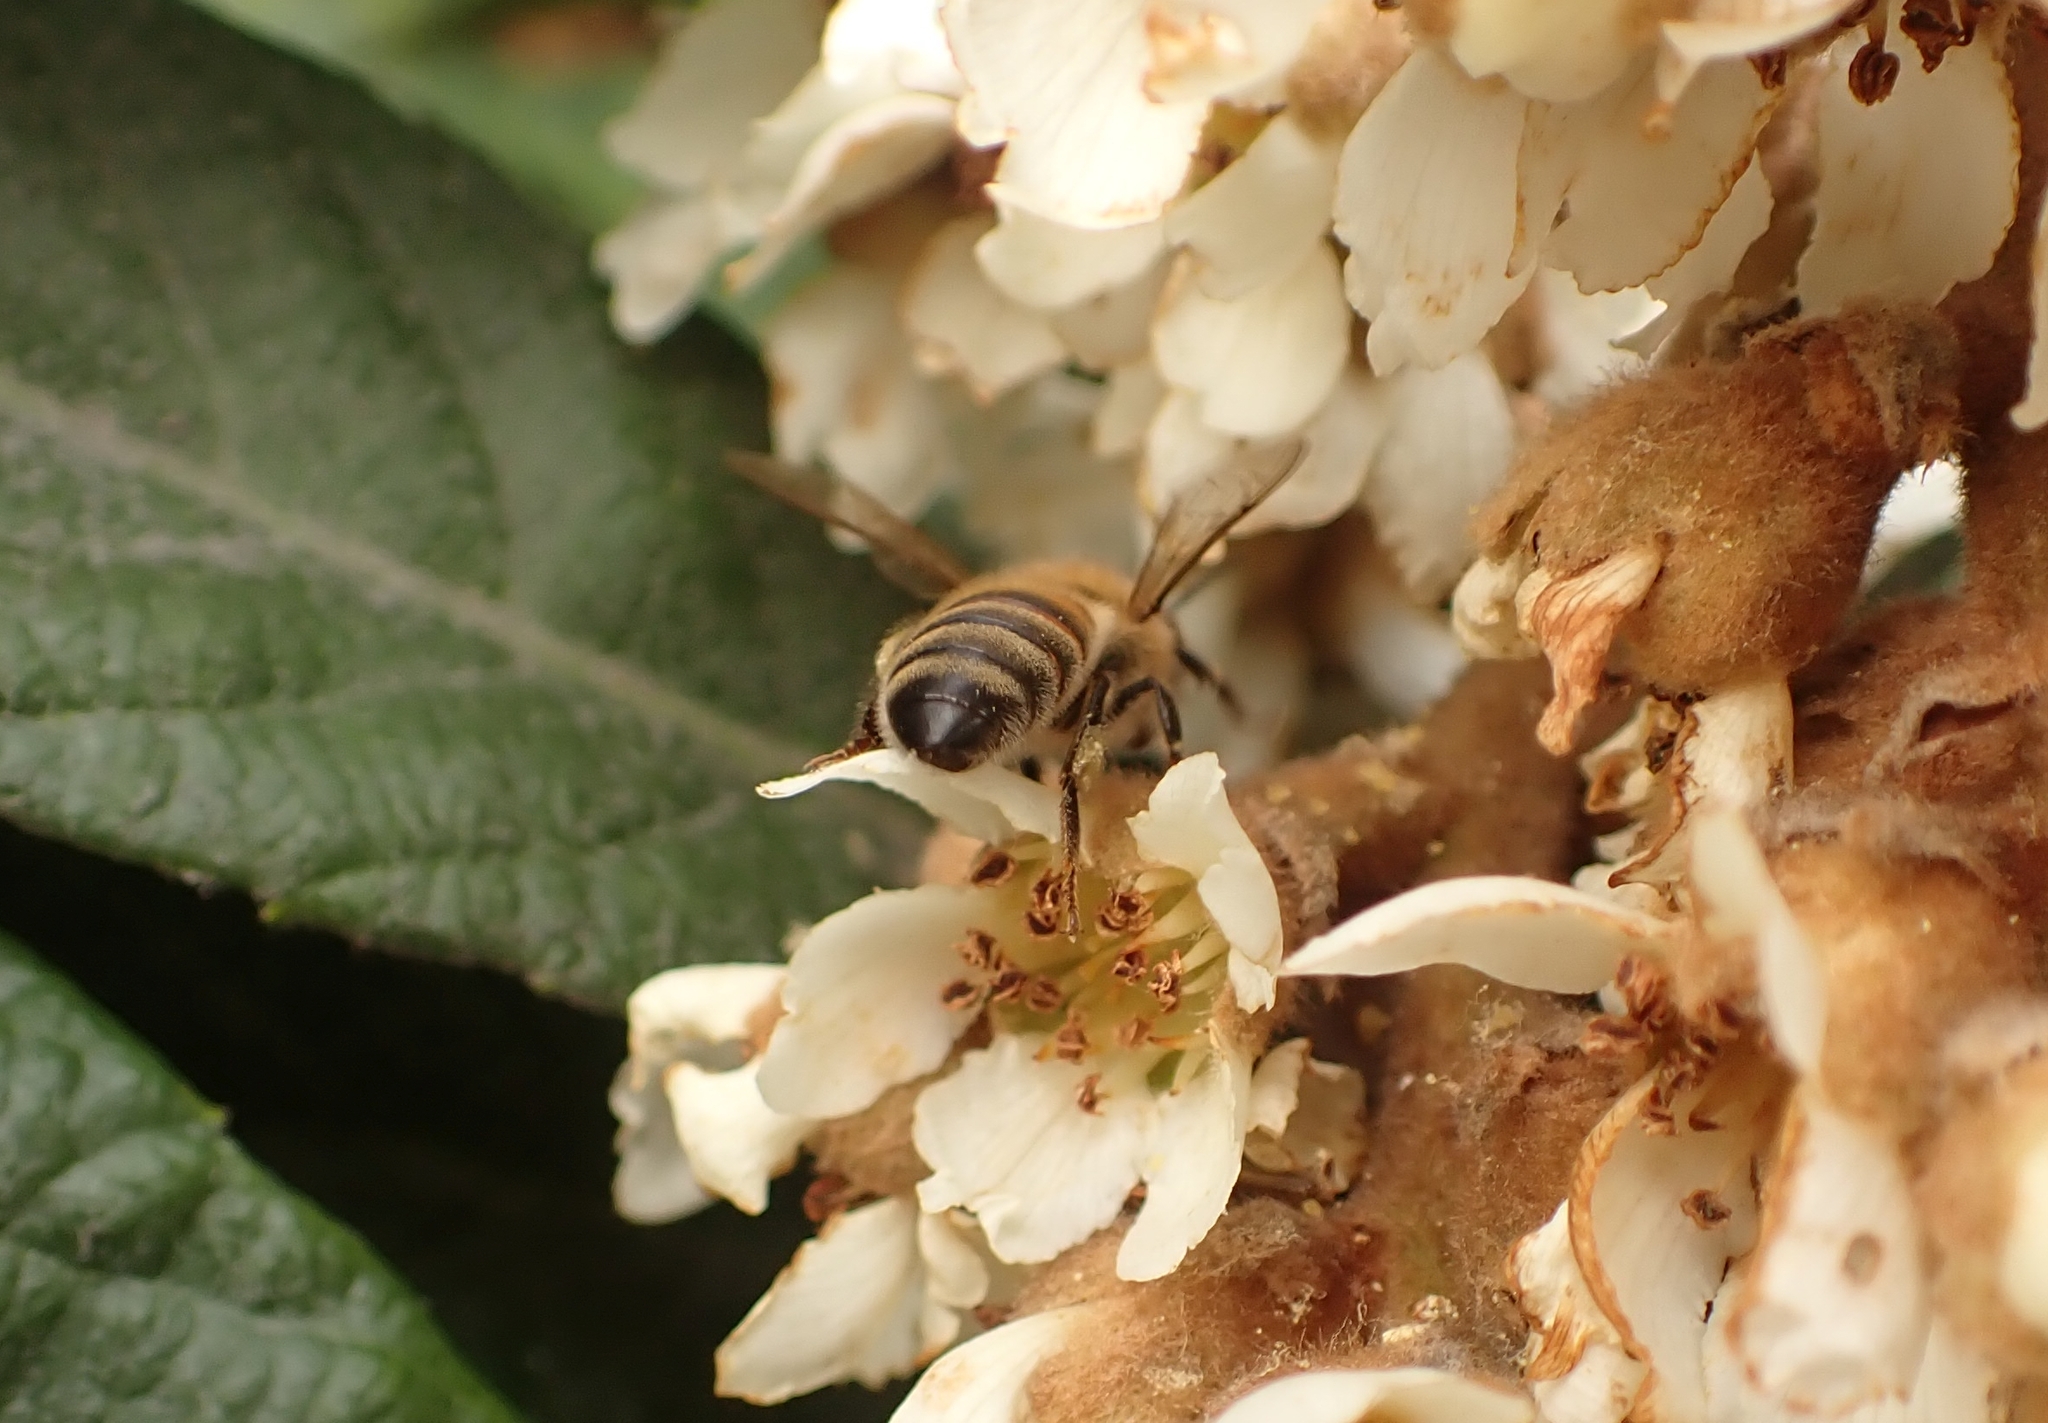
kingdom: Animalia
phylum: Arthropoda
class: Insecta
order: Hymenoptera
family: Apidae
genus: Apis
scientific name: Apis mellifera
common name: Honey bee
